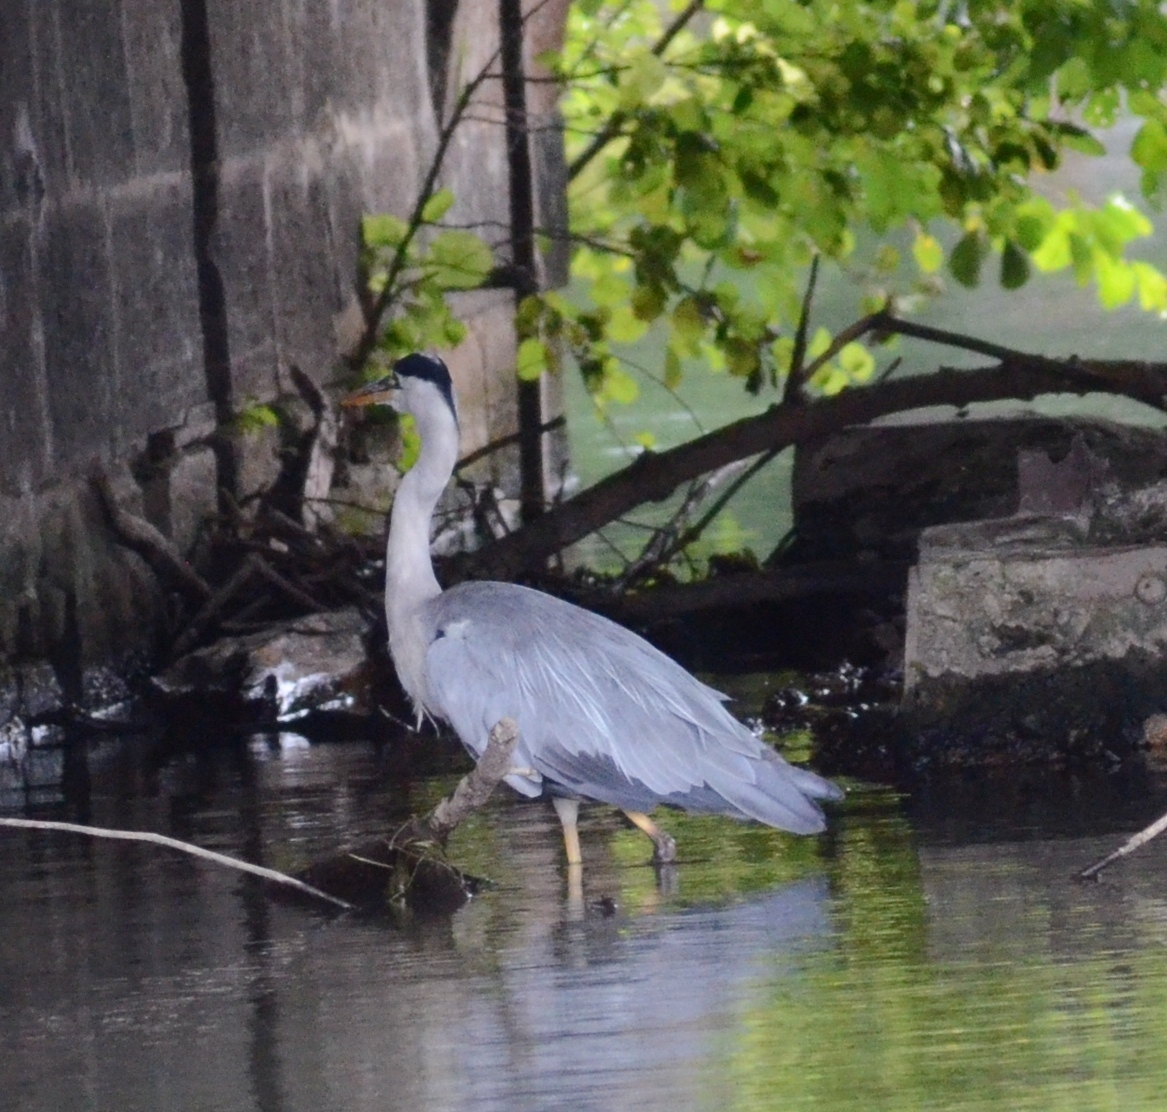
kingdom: Animalia
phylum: Chordata
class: Aves
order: Pelecaniformes
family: Ardeidae
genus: Ardea
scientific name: Ardea cinerea
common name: Grey heron
